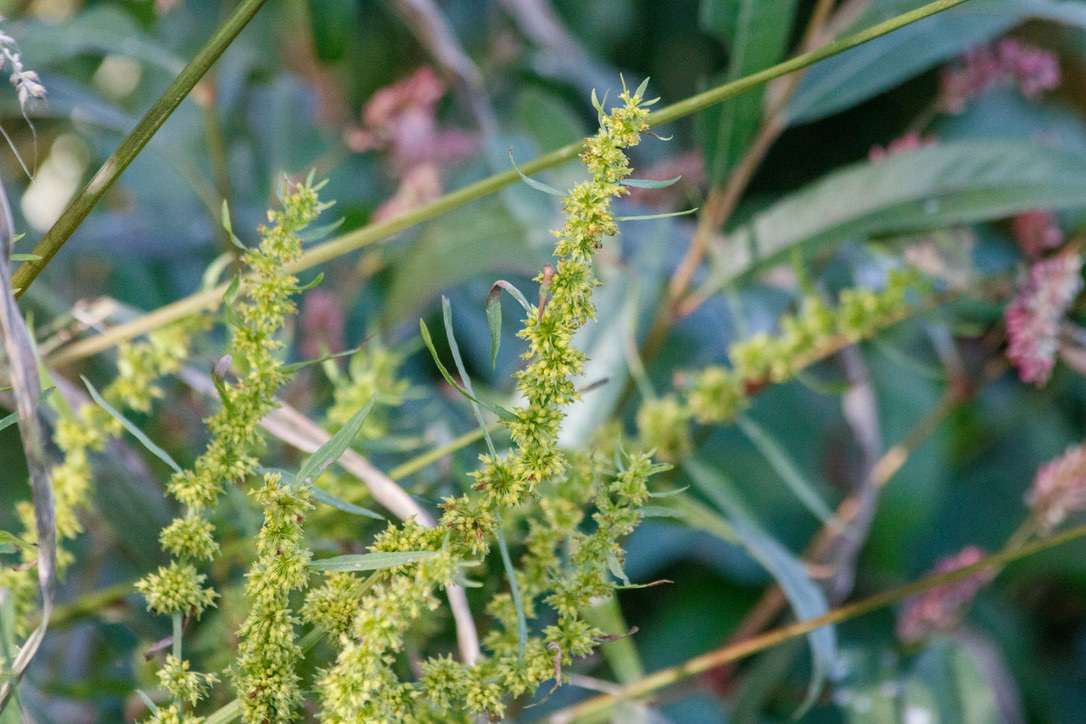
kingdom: Plantae
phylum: Tracheophyta
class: Magnoliopsida
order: Caryophyllales
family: Polygonaceae
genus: Rumex
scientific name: Rumex maritimus
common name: Golden dock
